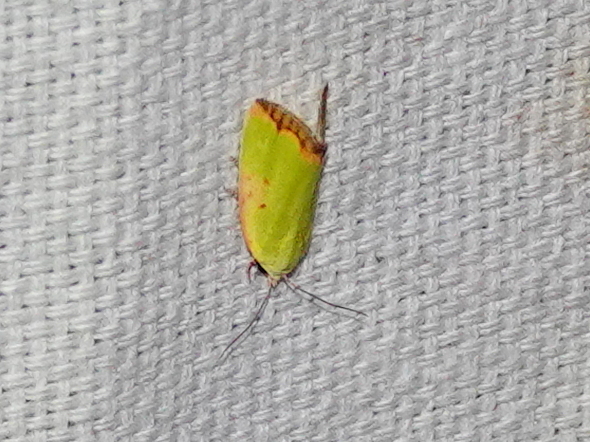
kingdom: Animalia
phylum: Arthropoda
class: Insecta
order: Lepidoptera
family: Nolidae
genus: Earias
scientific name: Earias cupreoviridis
